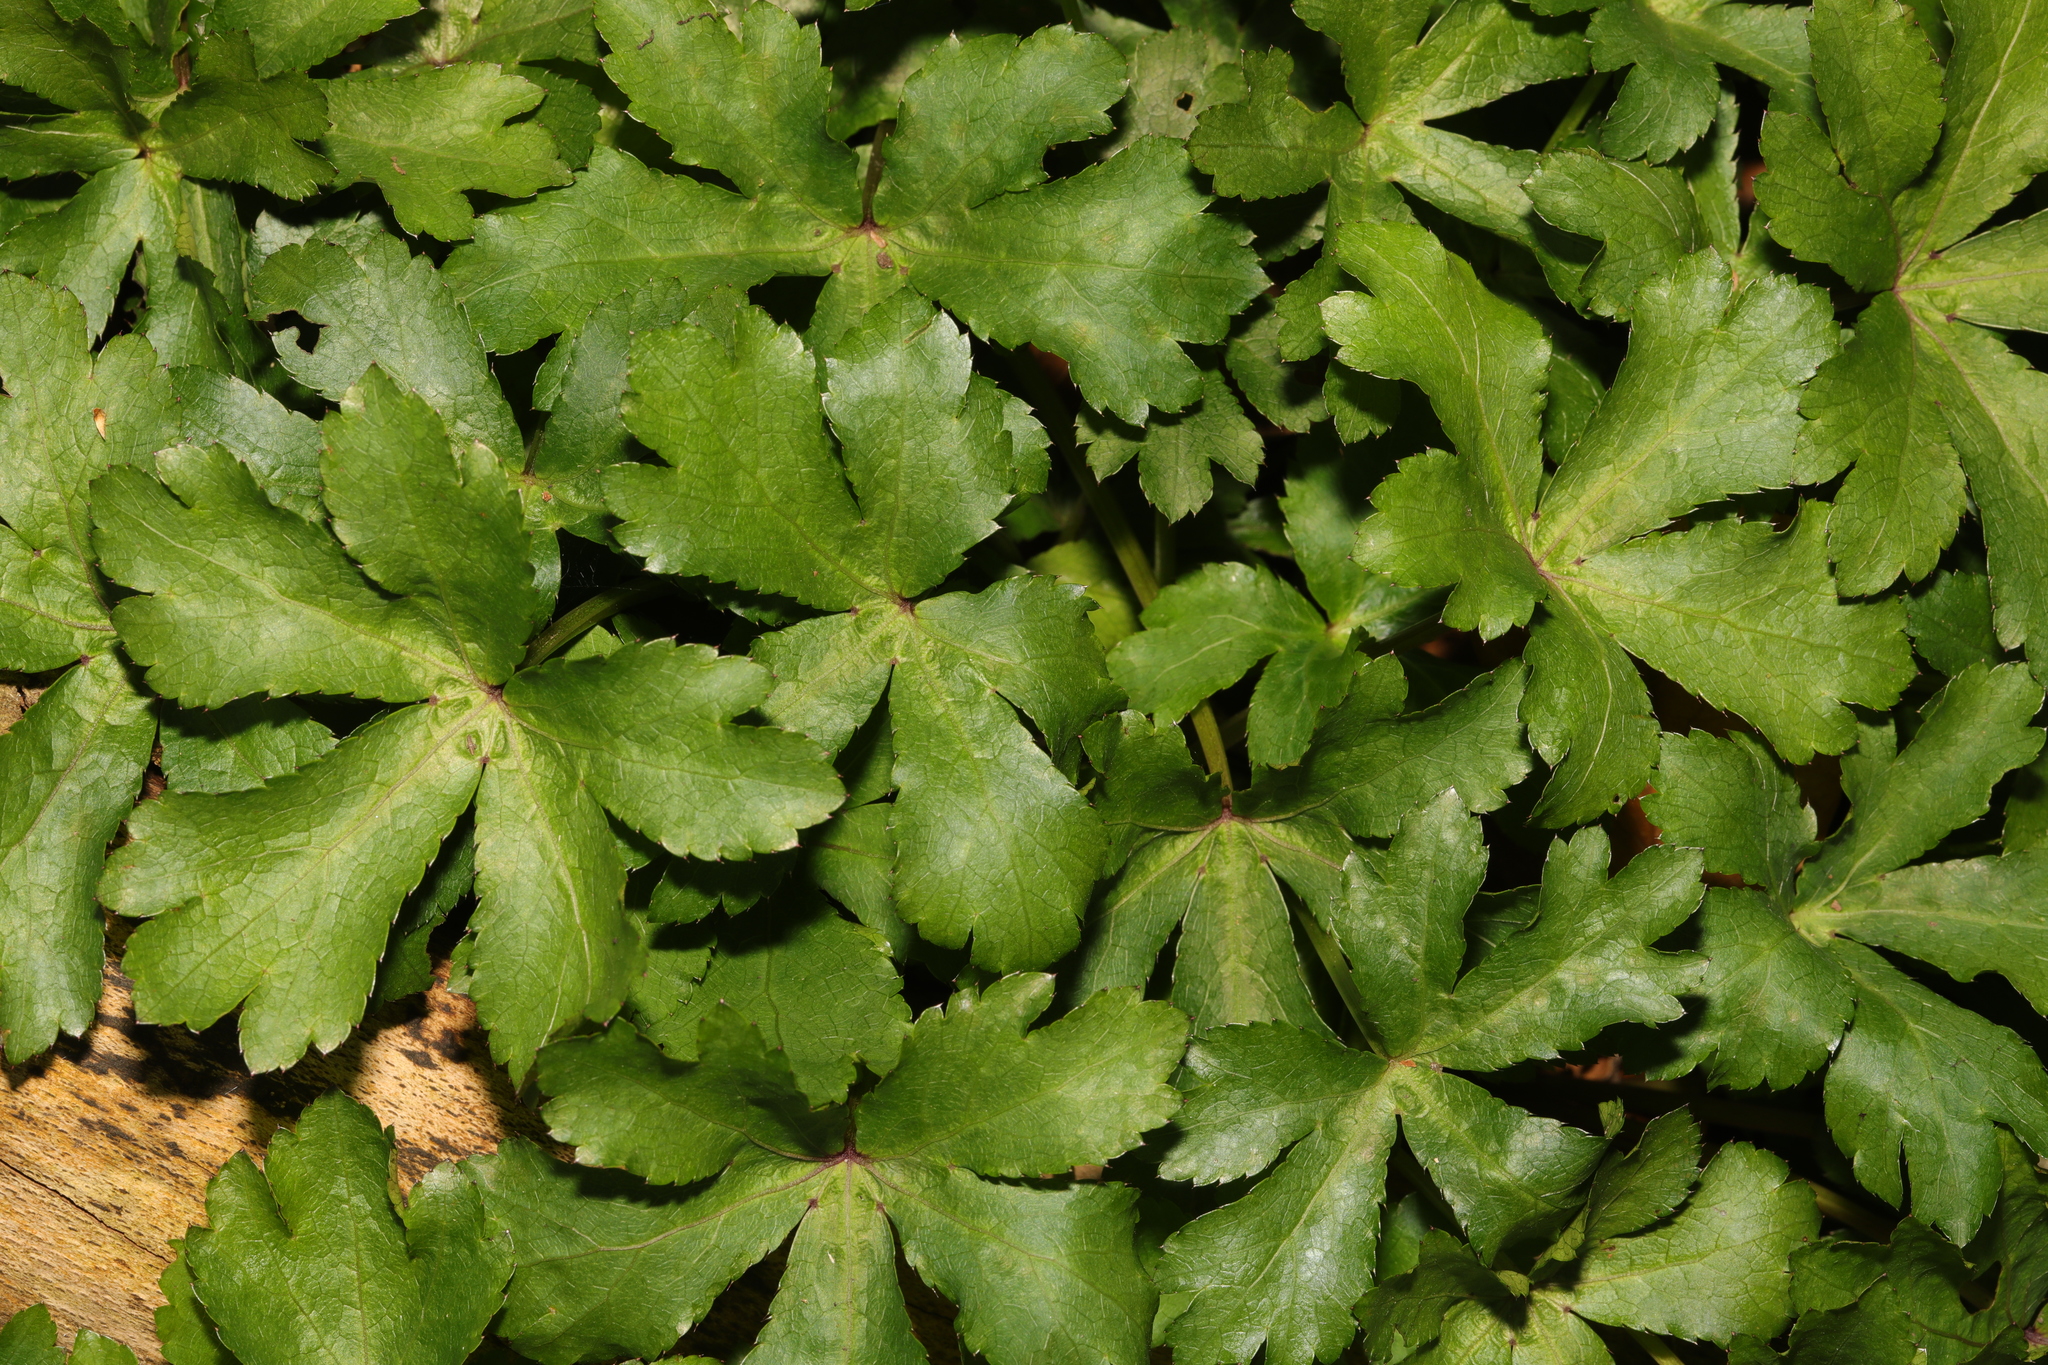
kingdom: Plantae
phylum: Tracheophyta
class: Magnoliopsida
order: Apiales
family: Apiaceae
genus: Sanicula
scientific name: Sanicula europaea
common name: Sanicle
